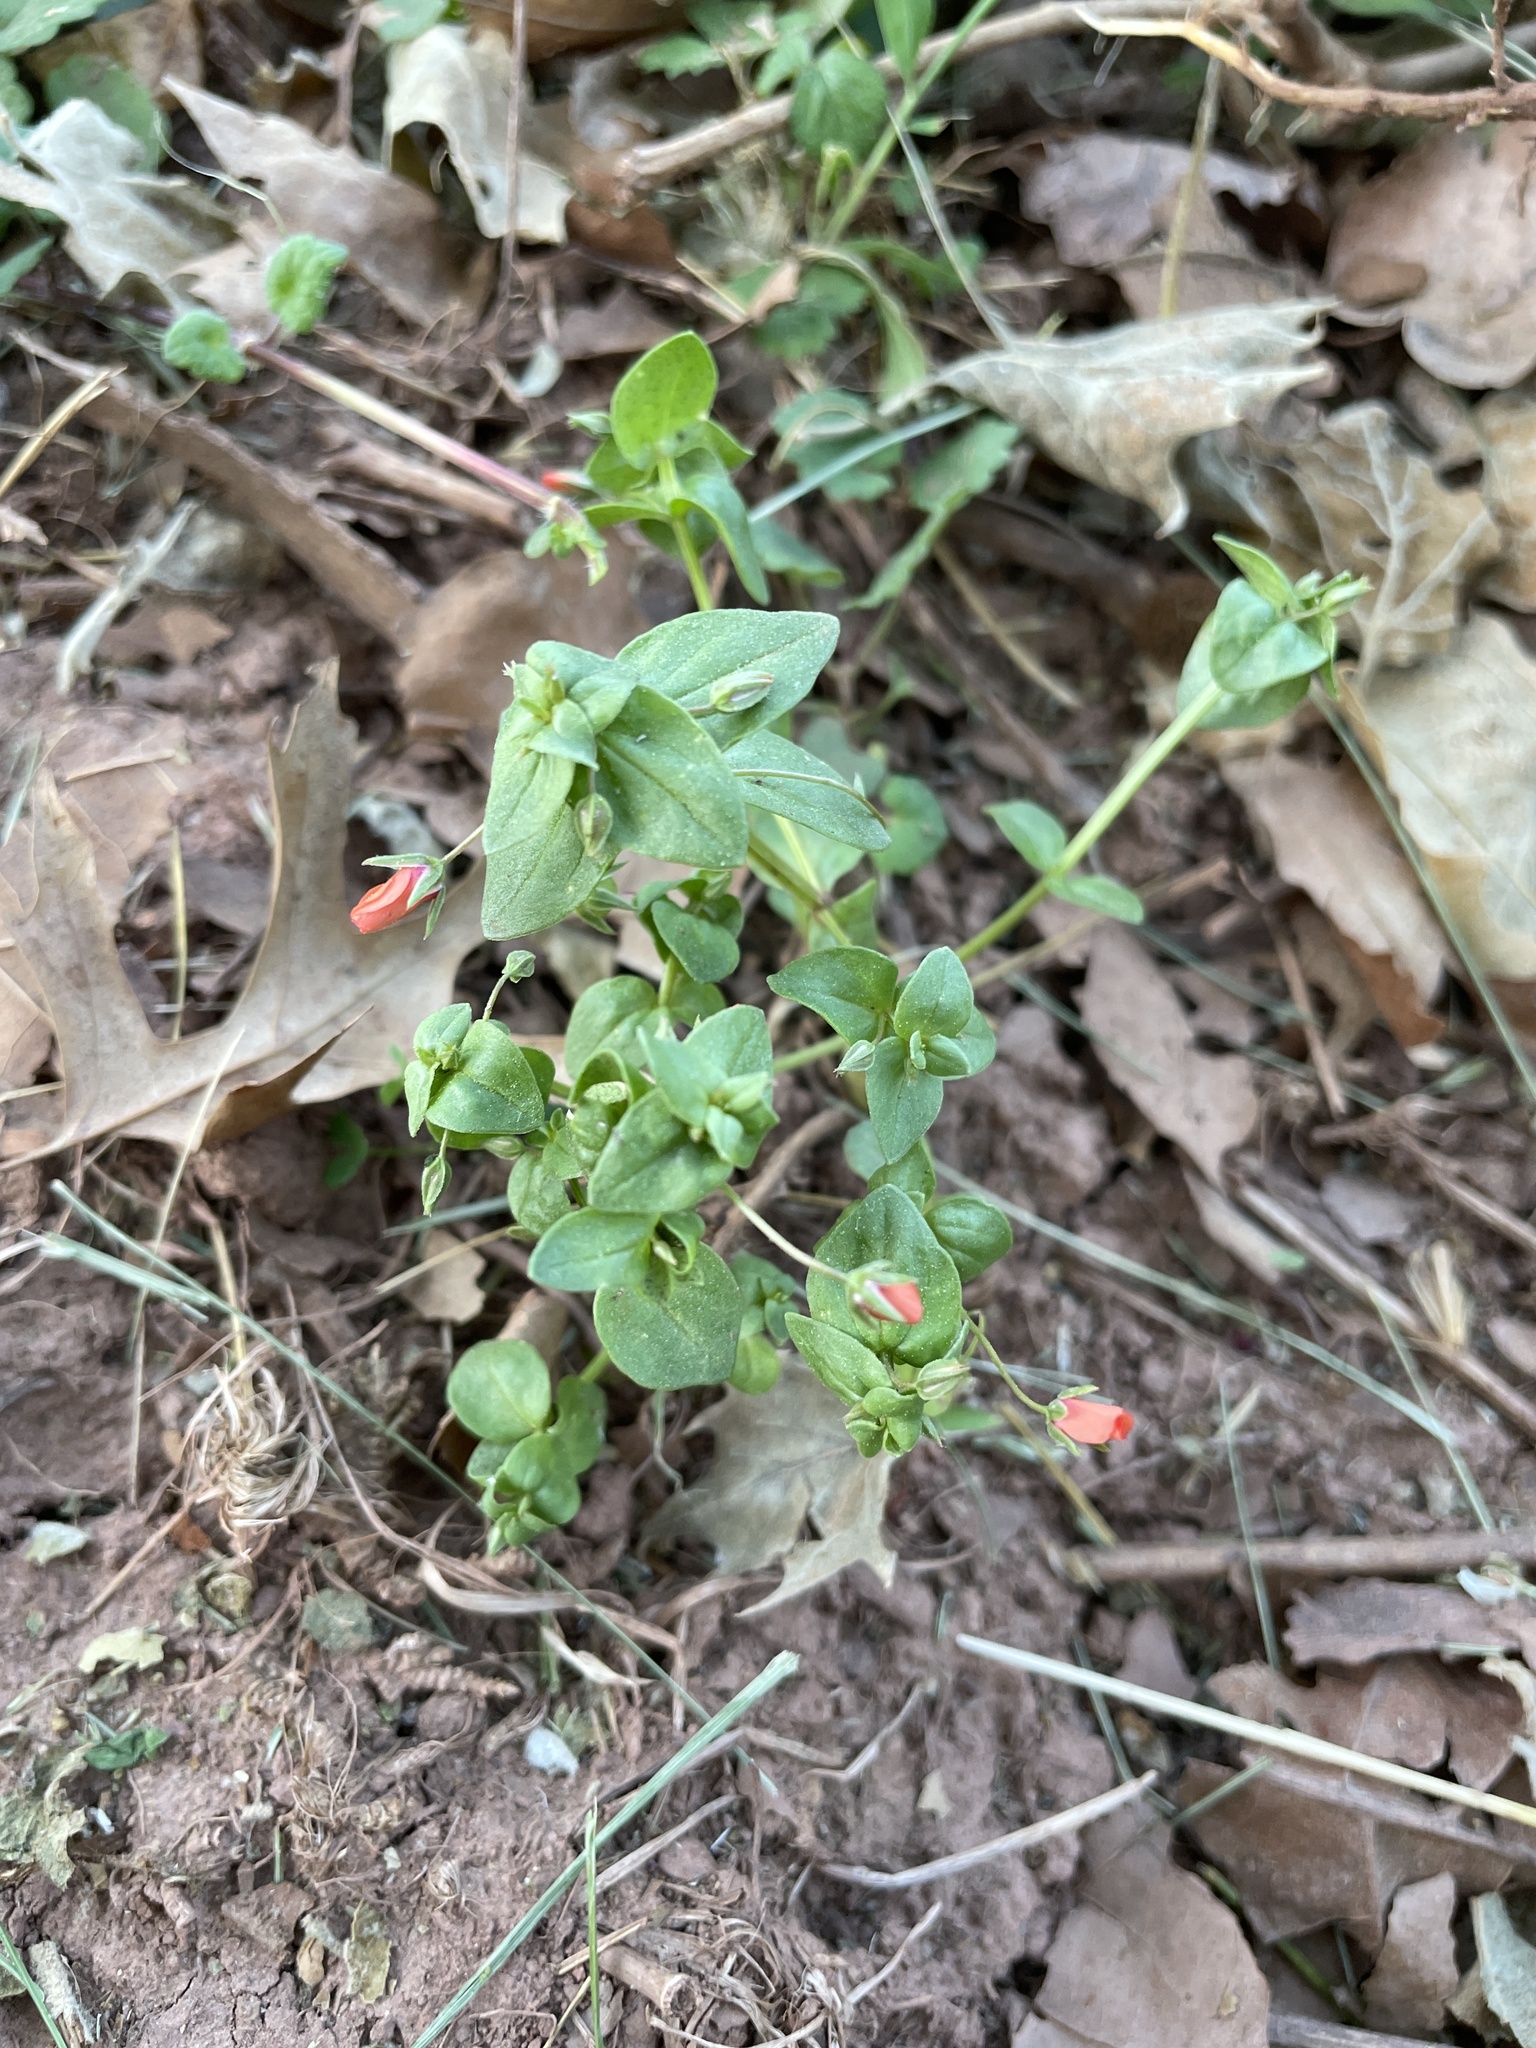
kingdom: Plantae
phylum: Tracheophyta
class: Magnoliopsida
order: Ericales
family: Primulaceae
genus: Lysimachia
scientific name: Lysimachia arvensis
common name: Scarlet pimpernel
